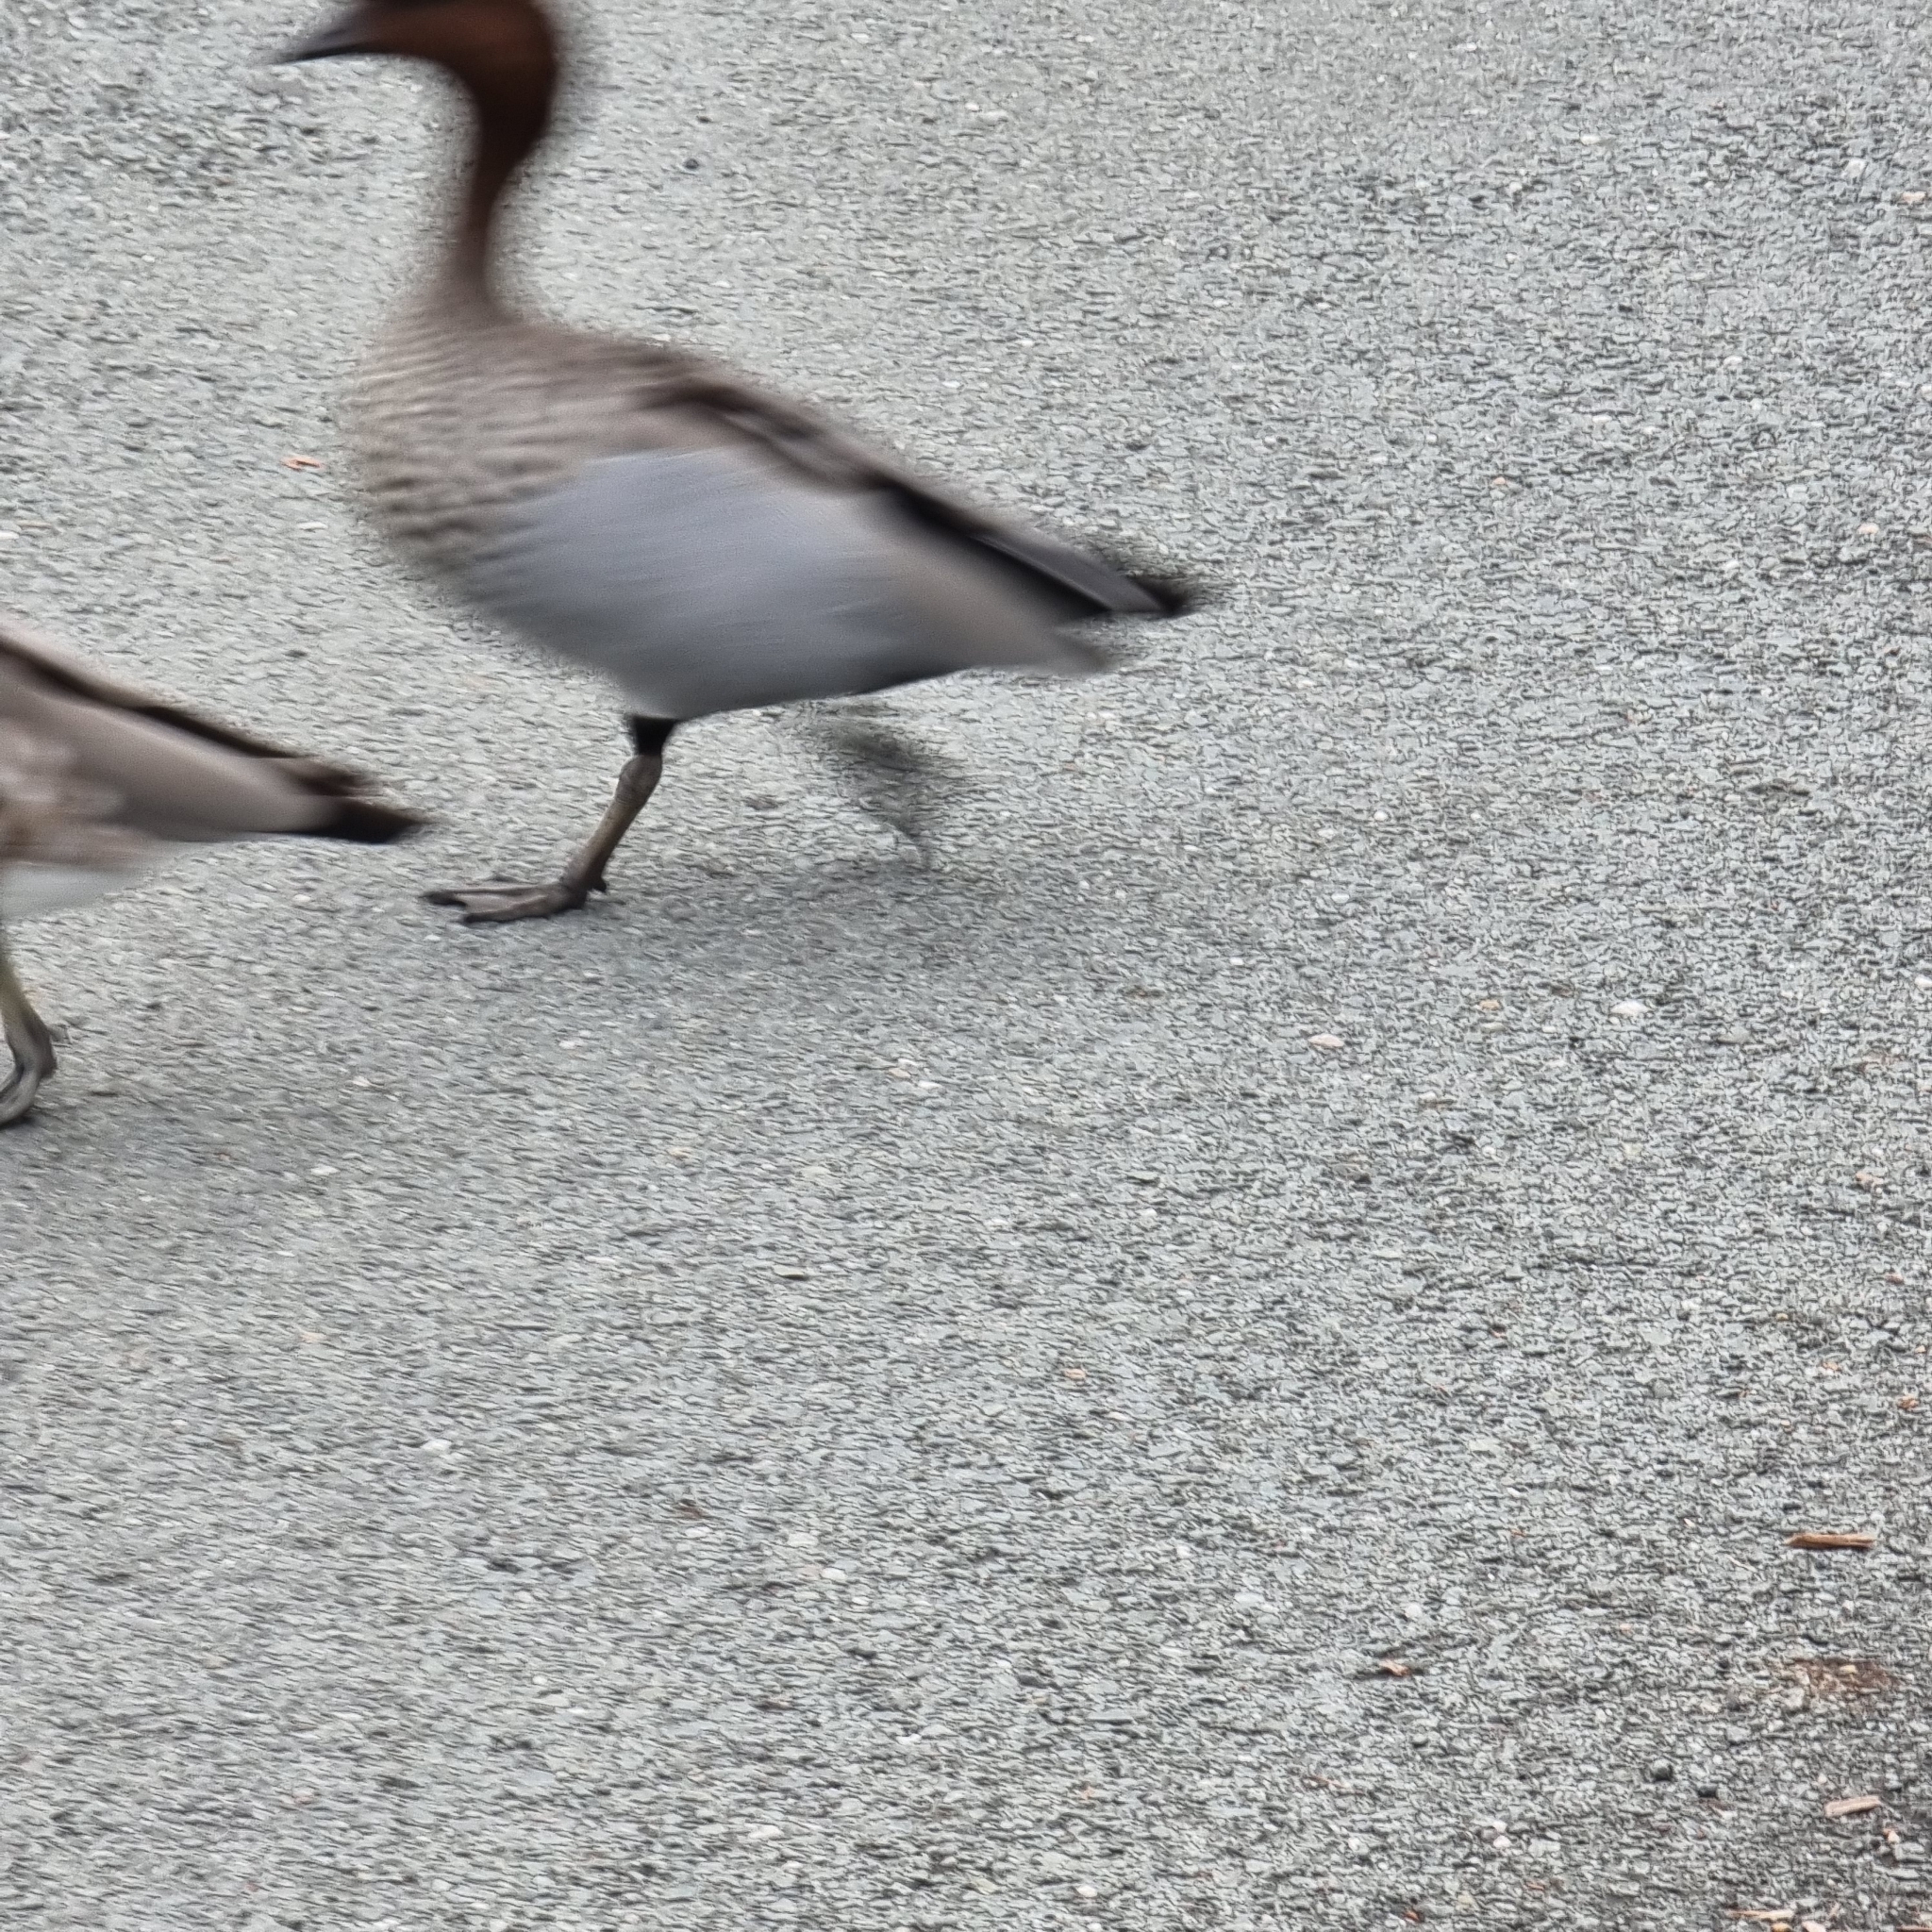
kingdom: Animalia
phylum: Chordata
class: Aves
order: Anseriformes
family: Anatidae
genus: Chenonetta
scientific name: Chenonetta jubata
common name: Maned duck
